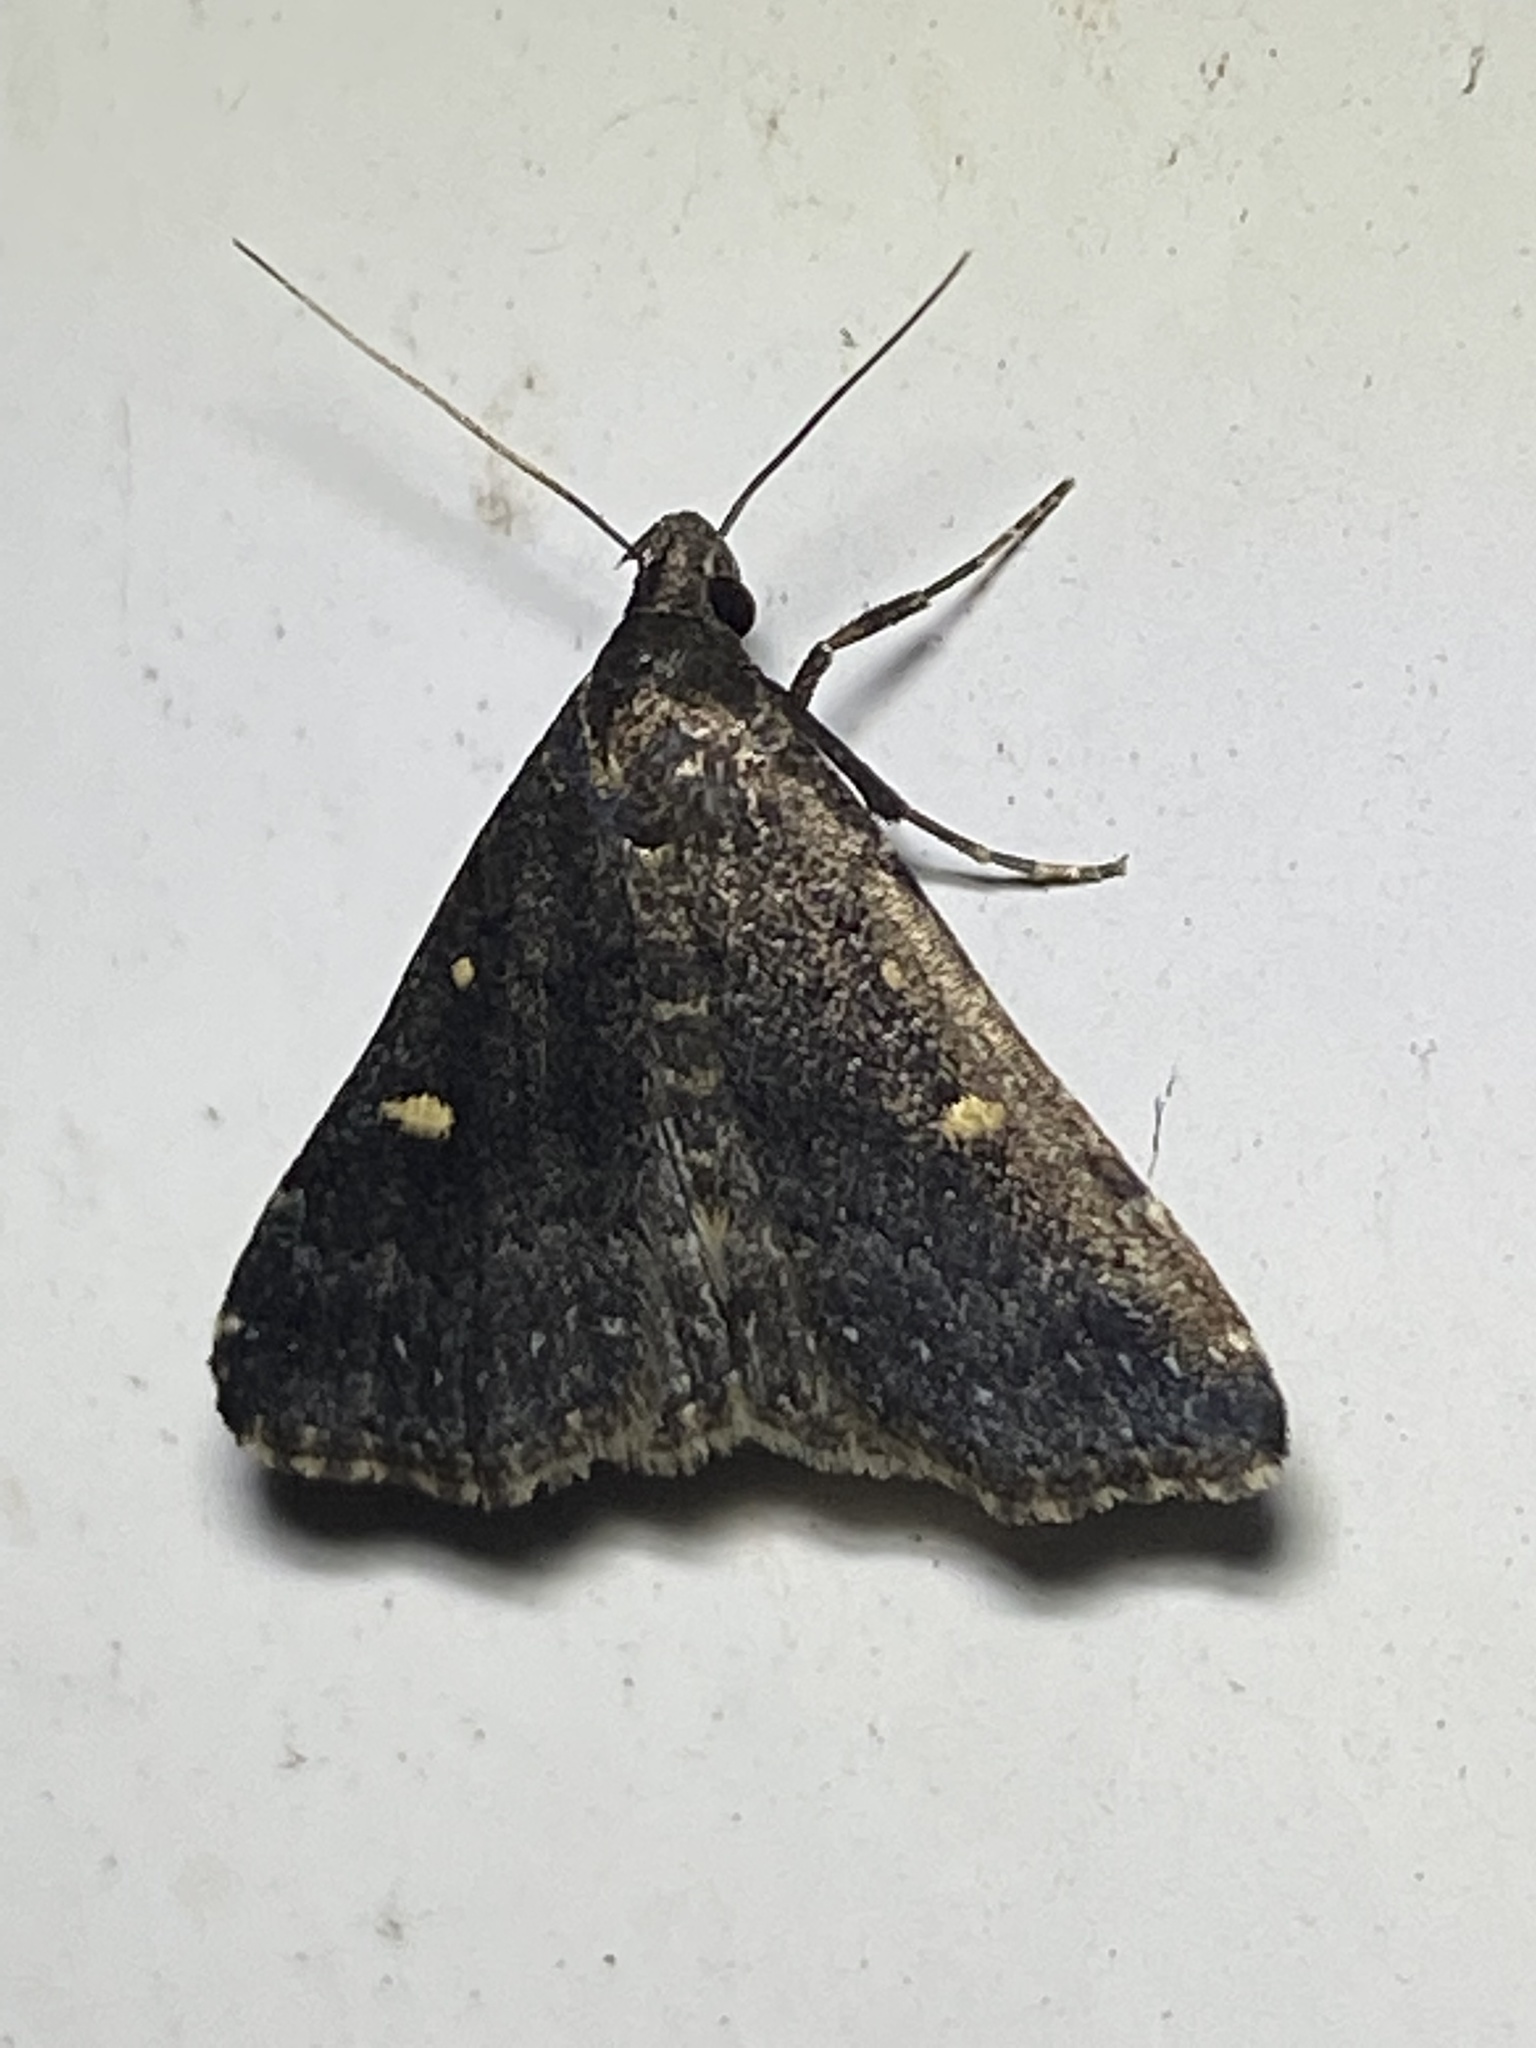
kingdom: Animalia
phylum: Arthropoda
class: Insecta
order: Lepidoptera
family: Erebidae
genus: Tetanolita
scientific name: Tetanolita mynesalis
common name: Smoky tetanolita moth
